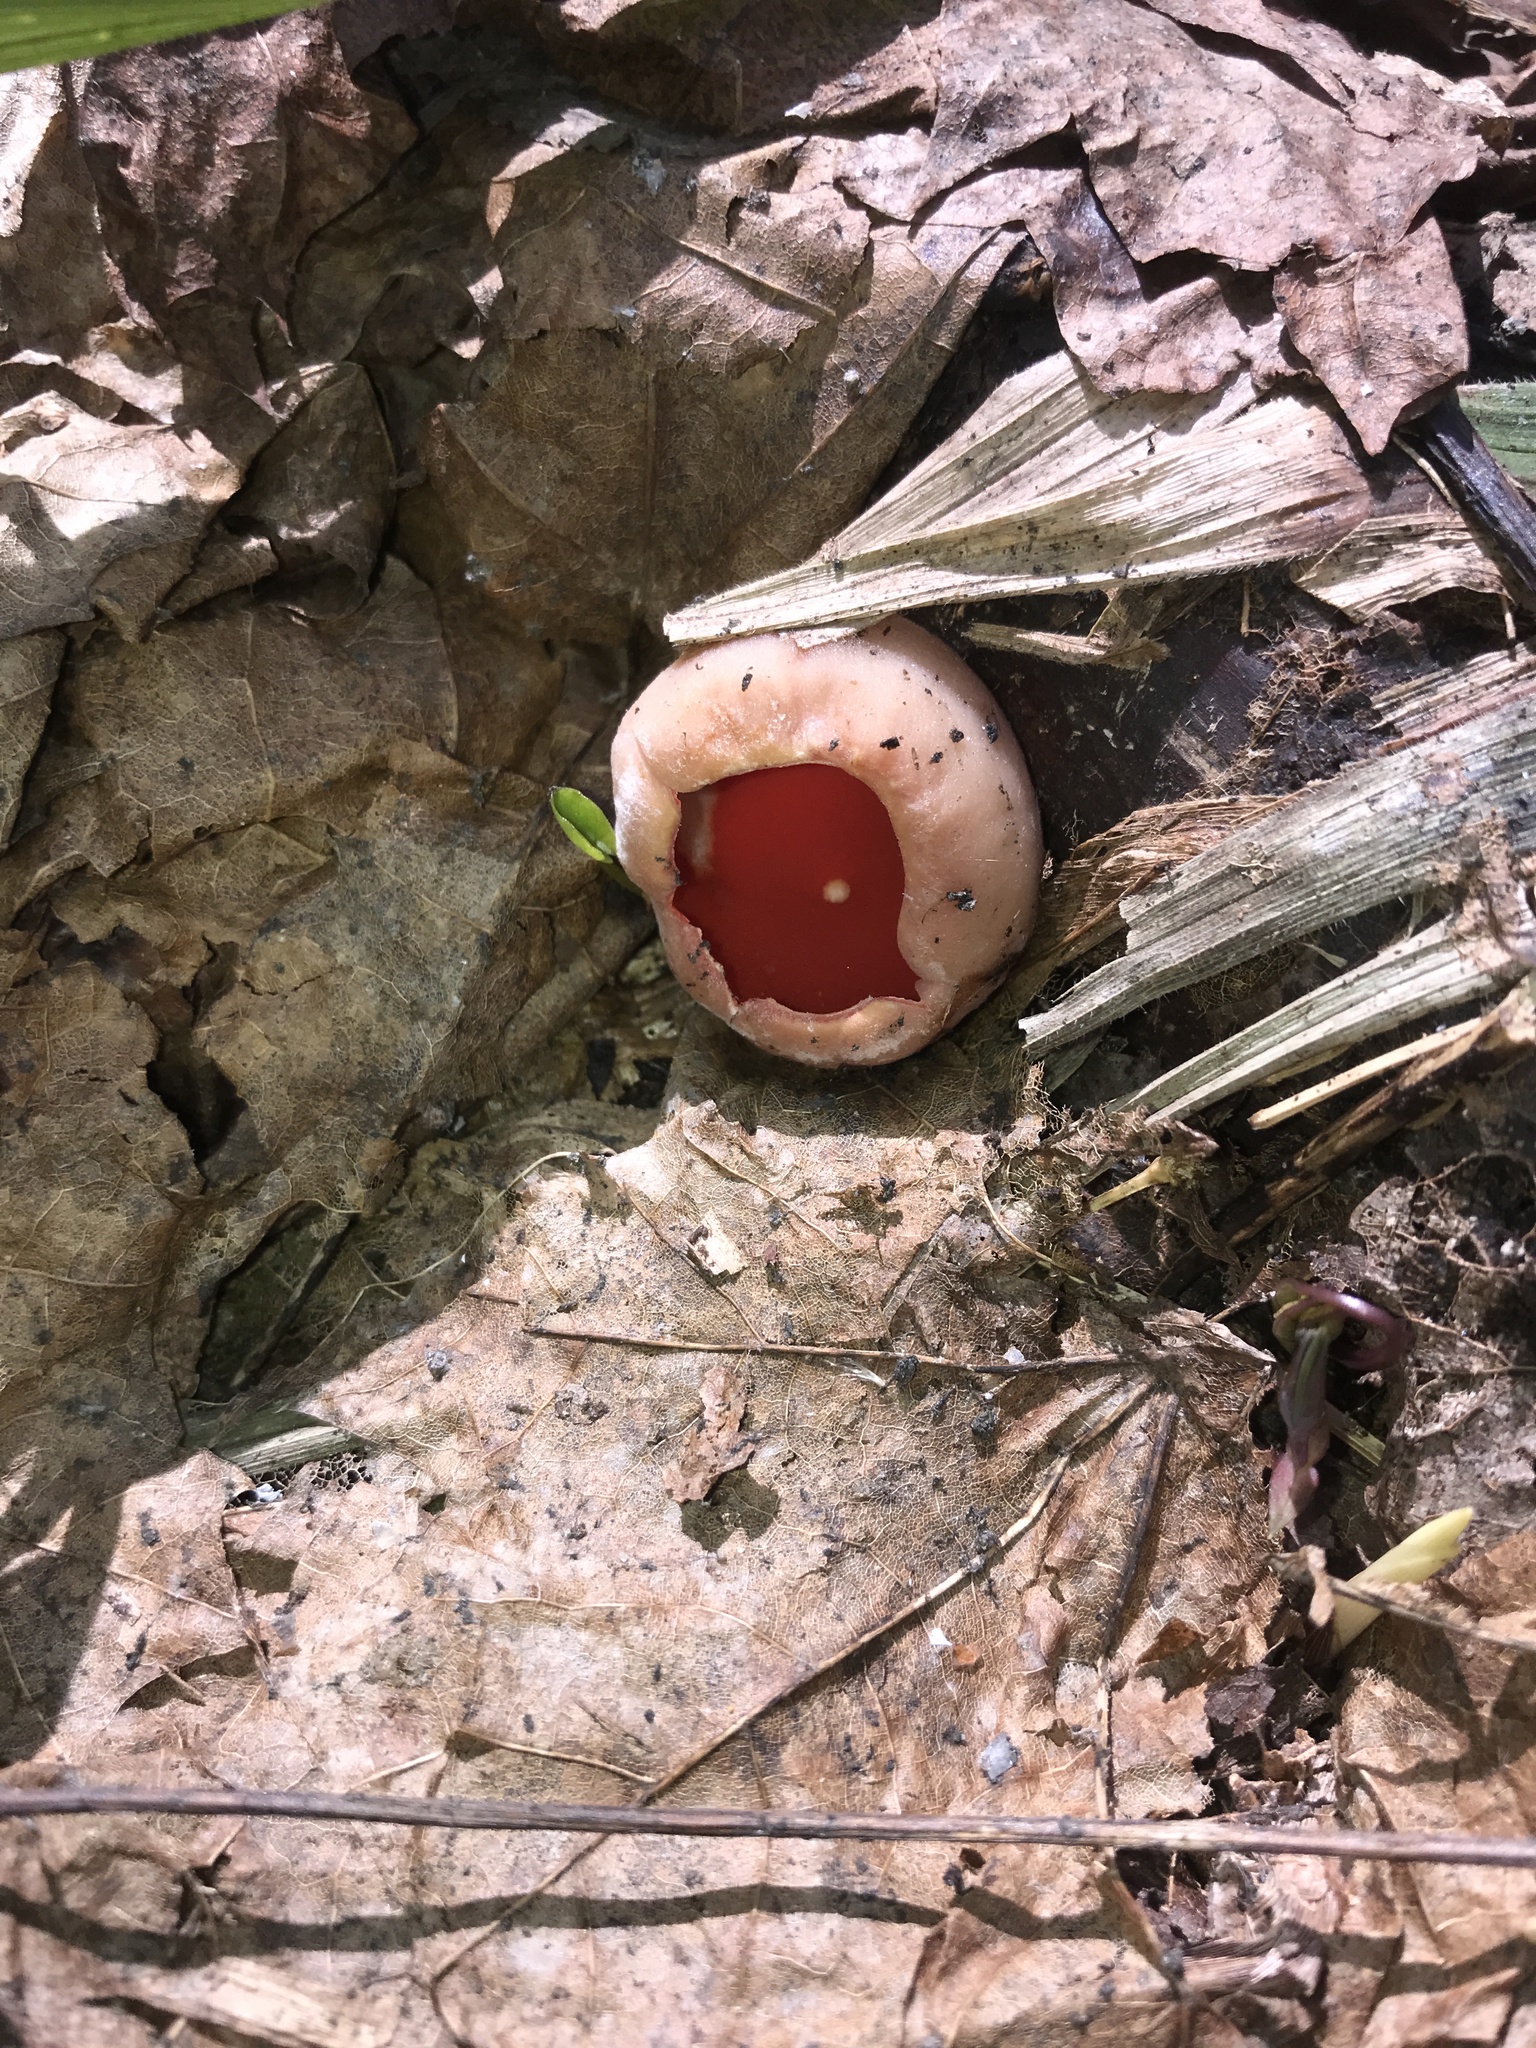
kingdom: Fungi
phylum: Ascomycota
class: Pezizomycetes
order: Pezizales
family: Sarcoscyphaceae
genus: Sarcoscypha
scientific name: Sarcoscypha austriaca
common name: Scarlet elfcup
